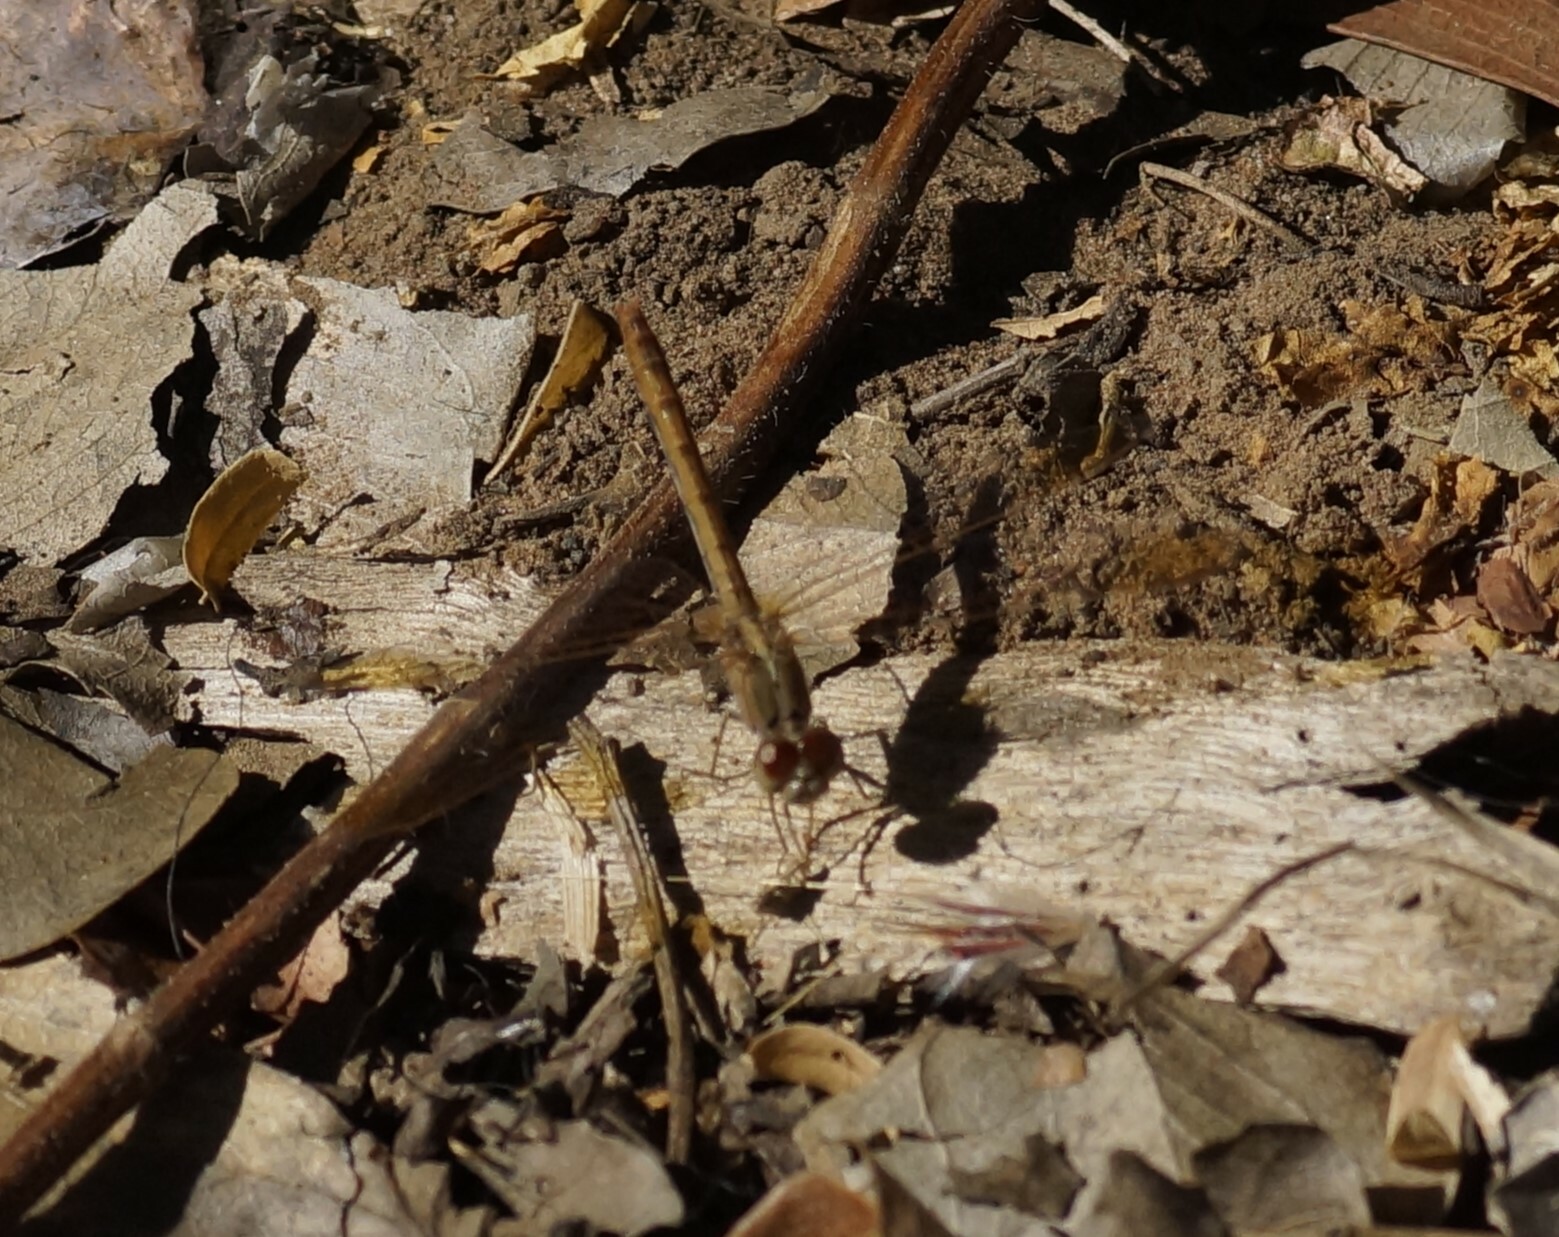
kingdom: Animalia
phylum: Arthropoda
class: Insecta
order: Odonata
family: Libellulidae
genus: Diplacodes
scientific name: Diplacodes haematodes
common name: Scarlet percher
